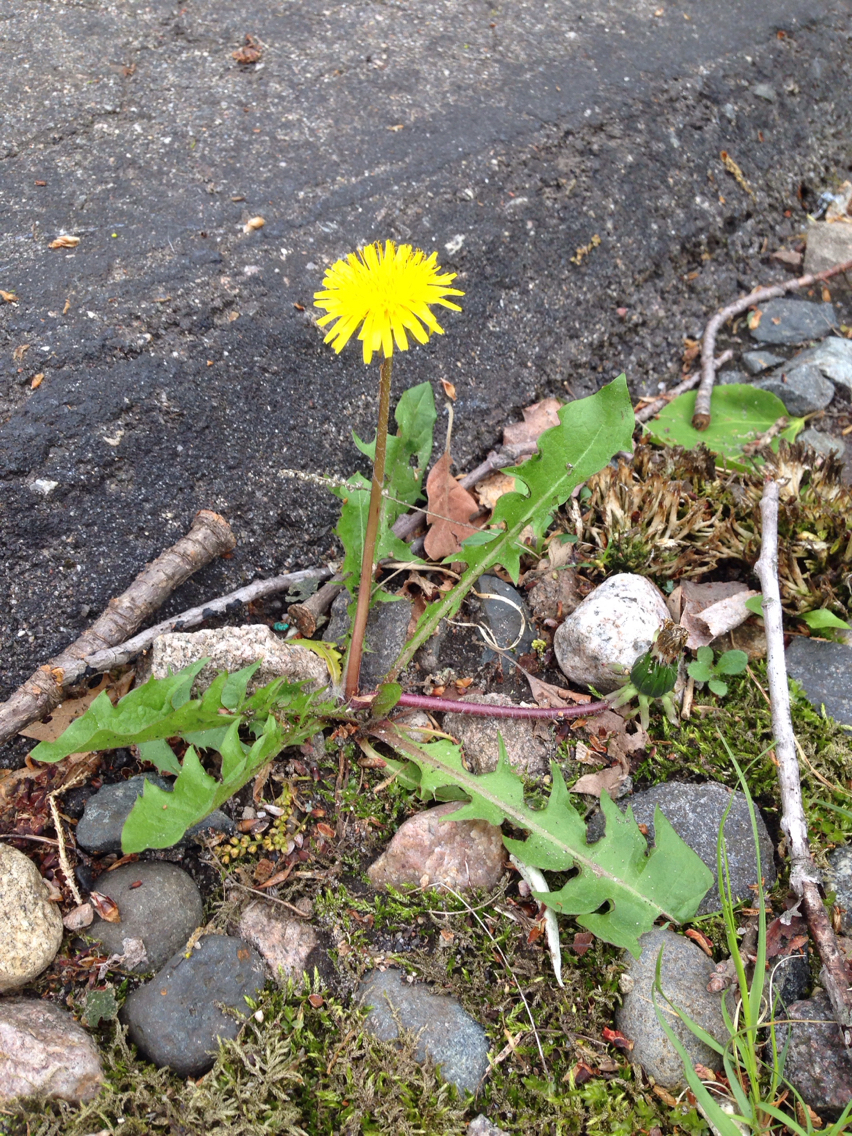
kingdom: Plantae
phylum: Tracheophyta
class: Magnoliopsida
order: Asterales
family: Asteraceae
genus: Taraxacum
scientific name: Taraxacum officinale
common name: Common dandelion
